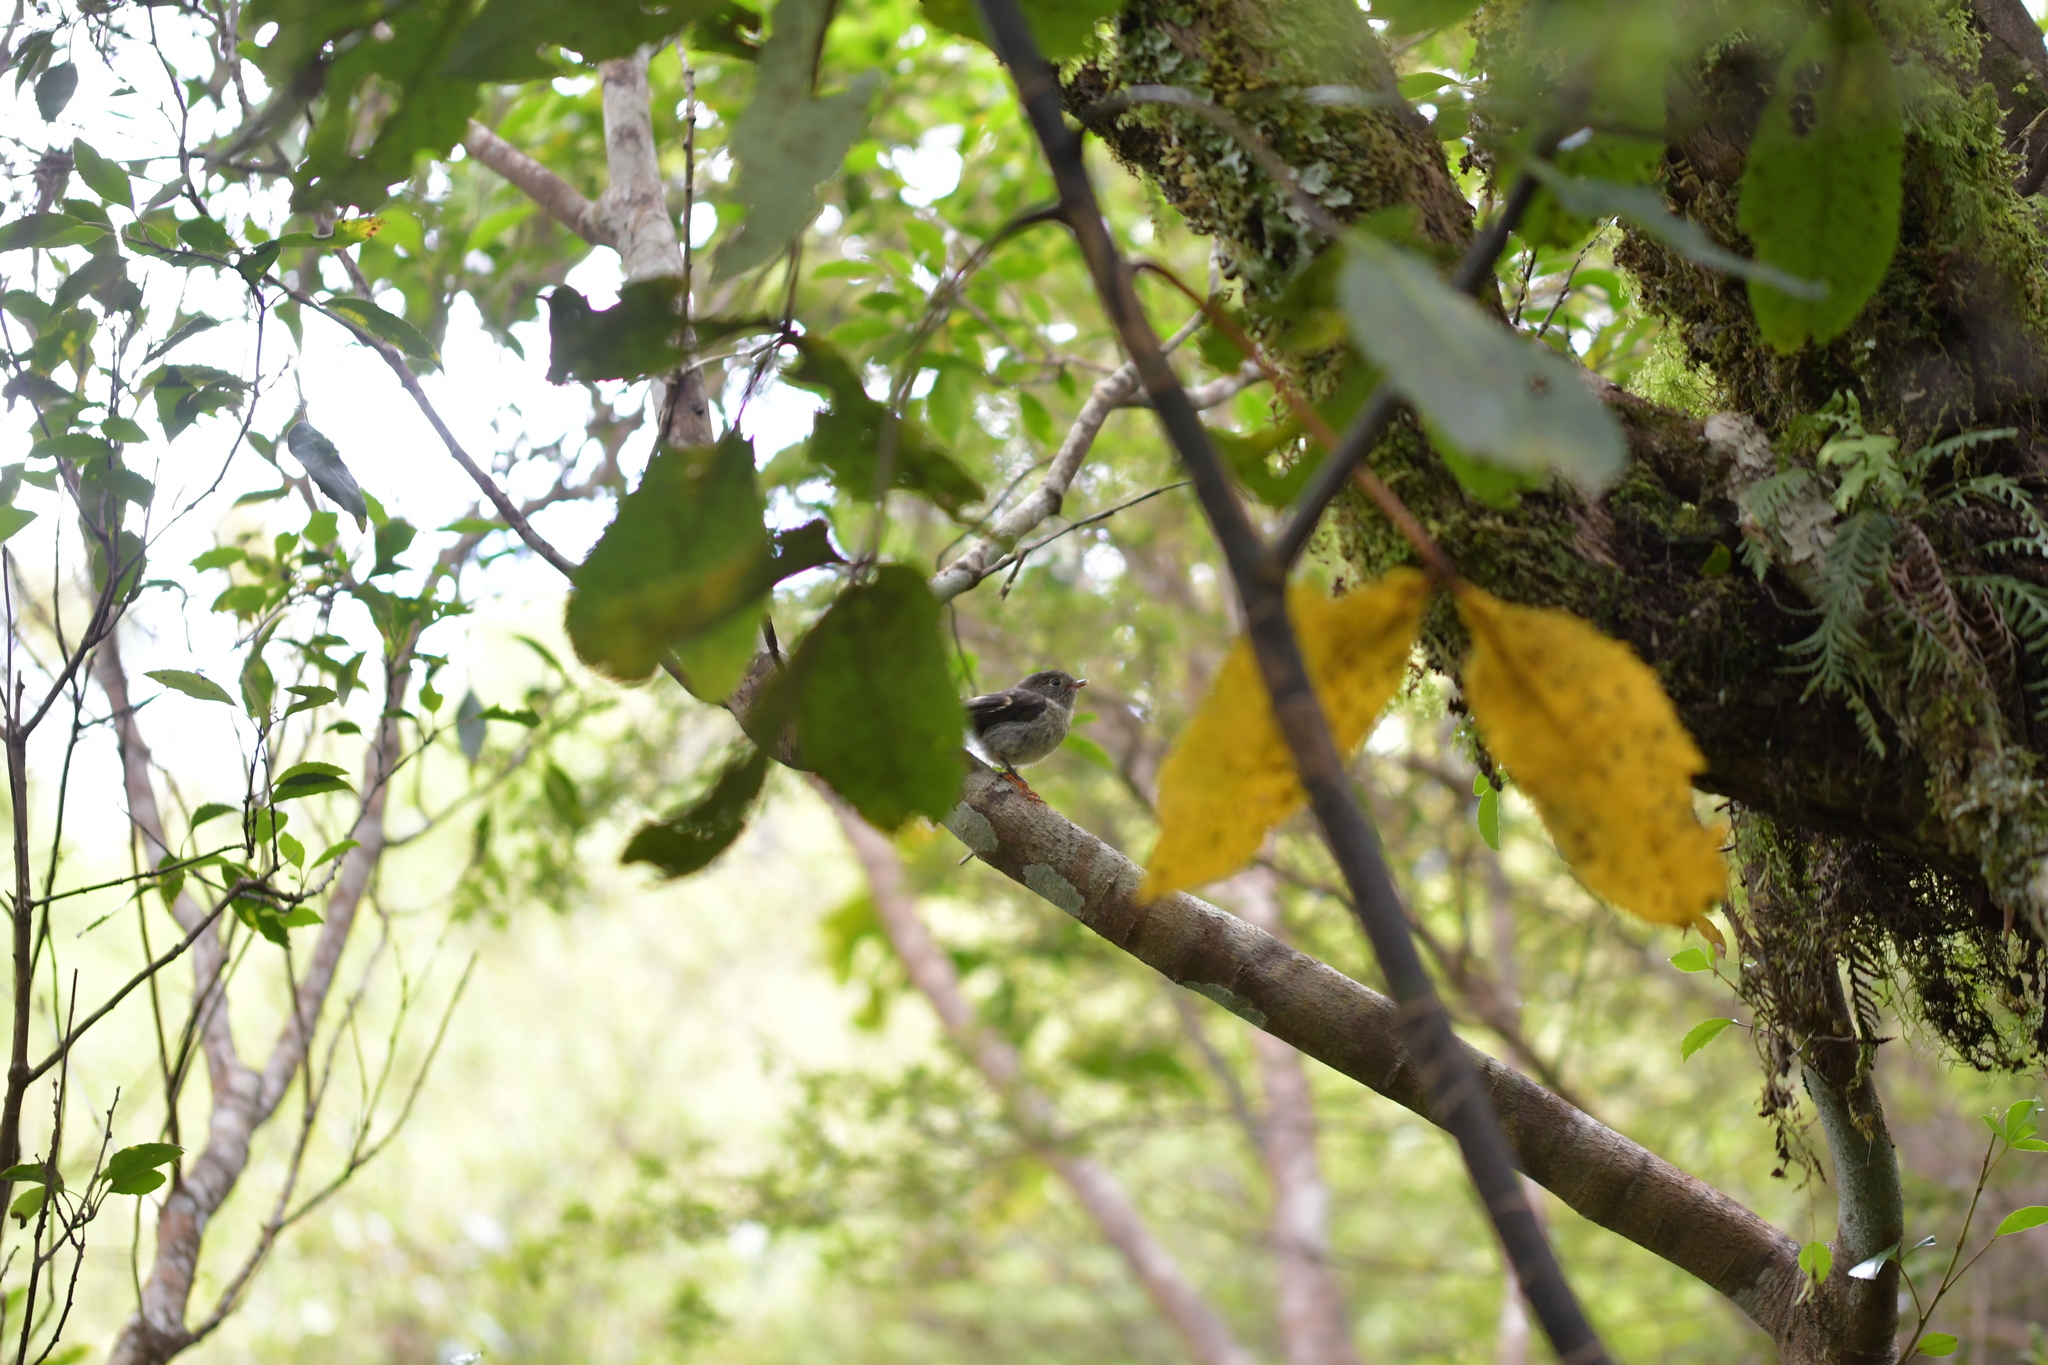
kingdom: Animalia
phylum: Chordata
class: Aves
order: Passeriformes
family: Petroicidae
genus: Petroica
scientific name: Petroica macrocephala
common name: Tomtit
